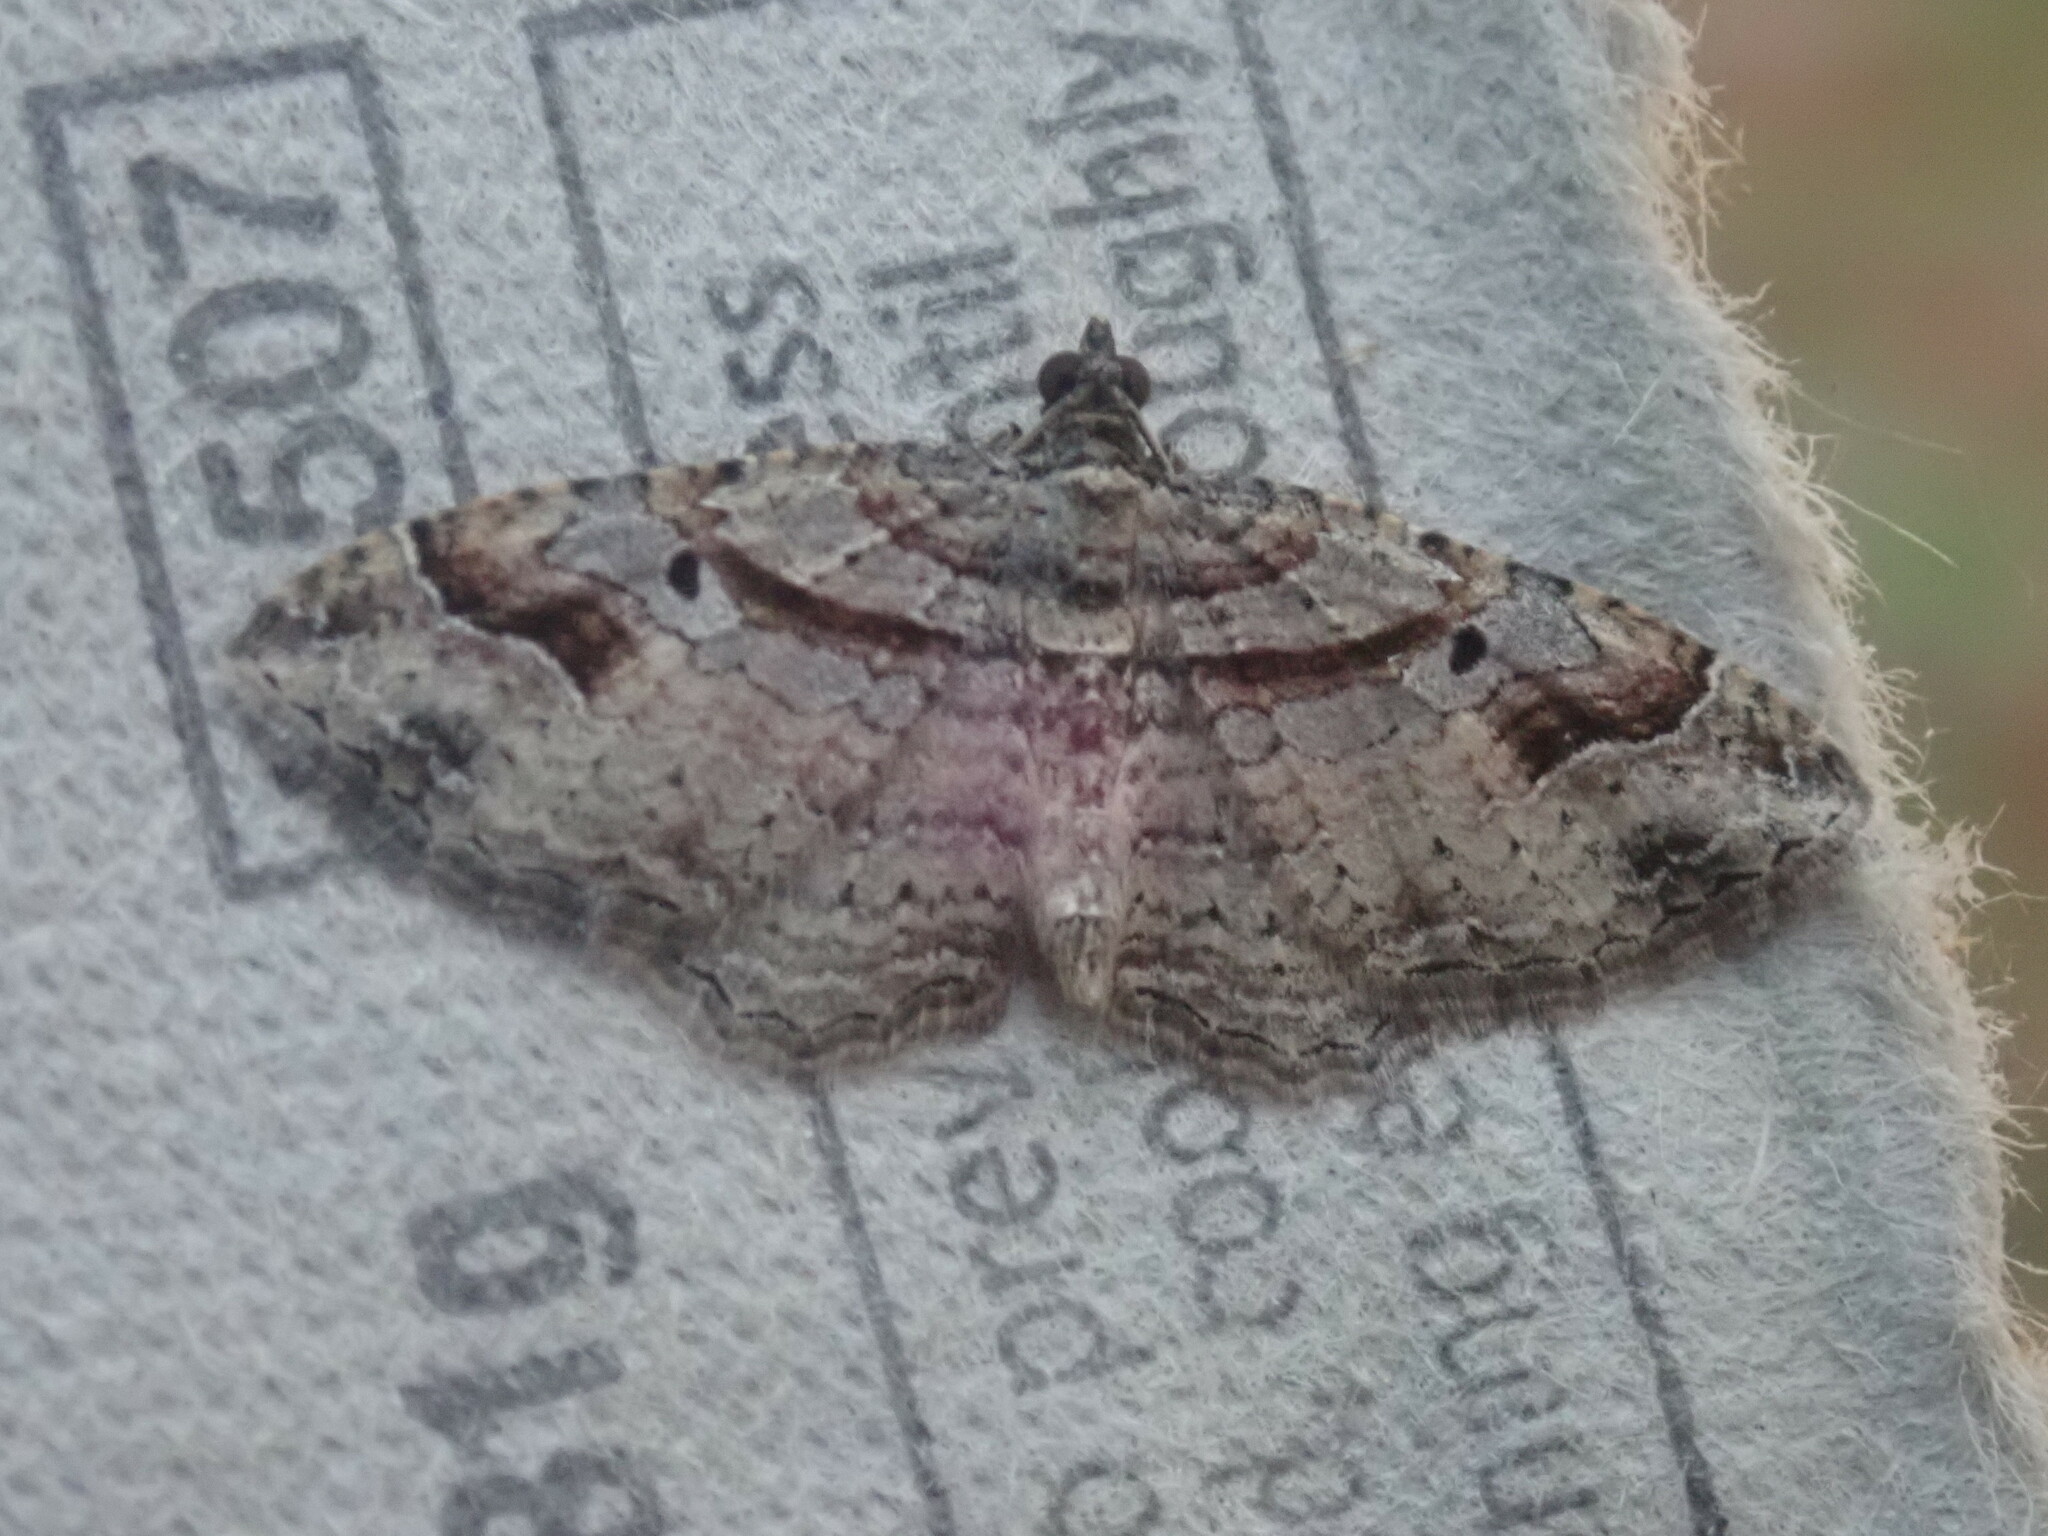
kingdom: Animalia
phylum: Arthropoda
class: Insecta
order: Lepidoptera
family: Geometridae
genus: Costaconvexa
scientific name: Costaconvexa centrostrigaria
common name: Bent-line carpet
